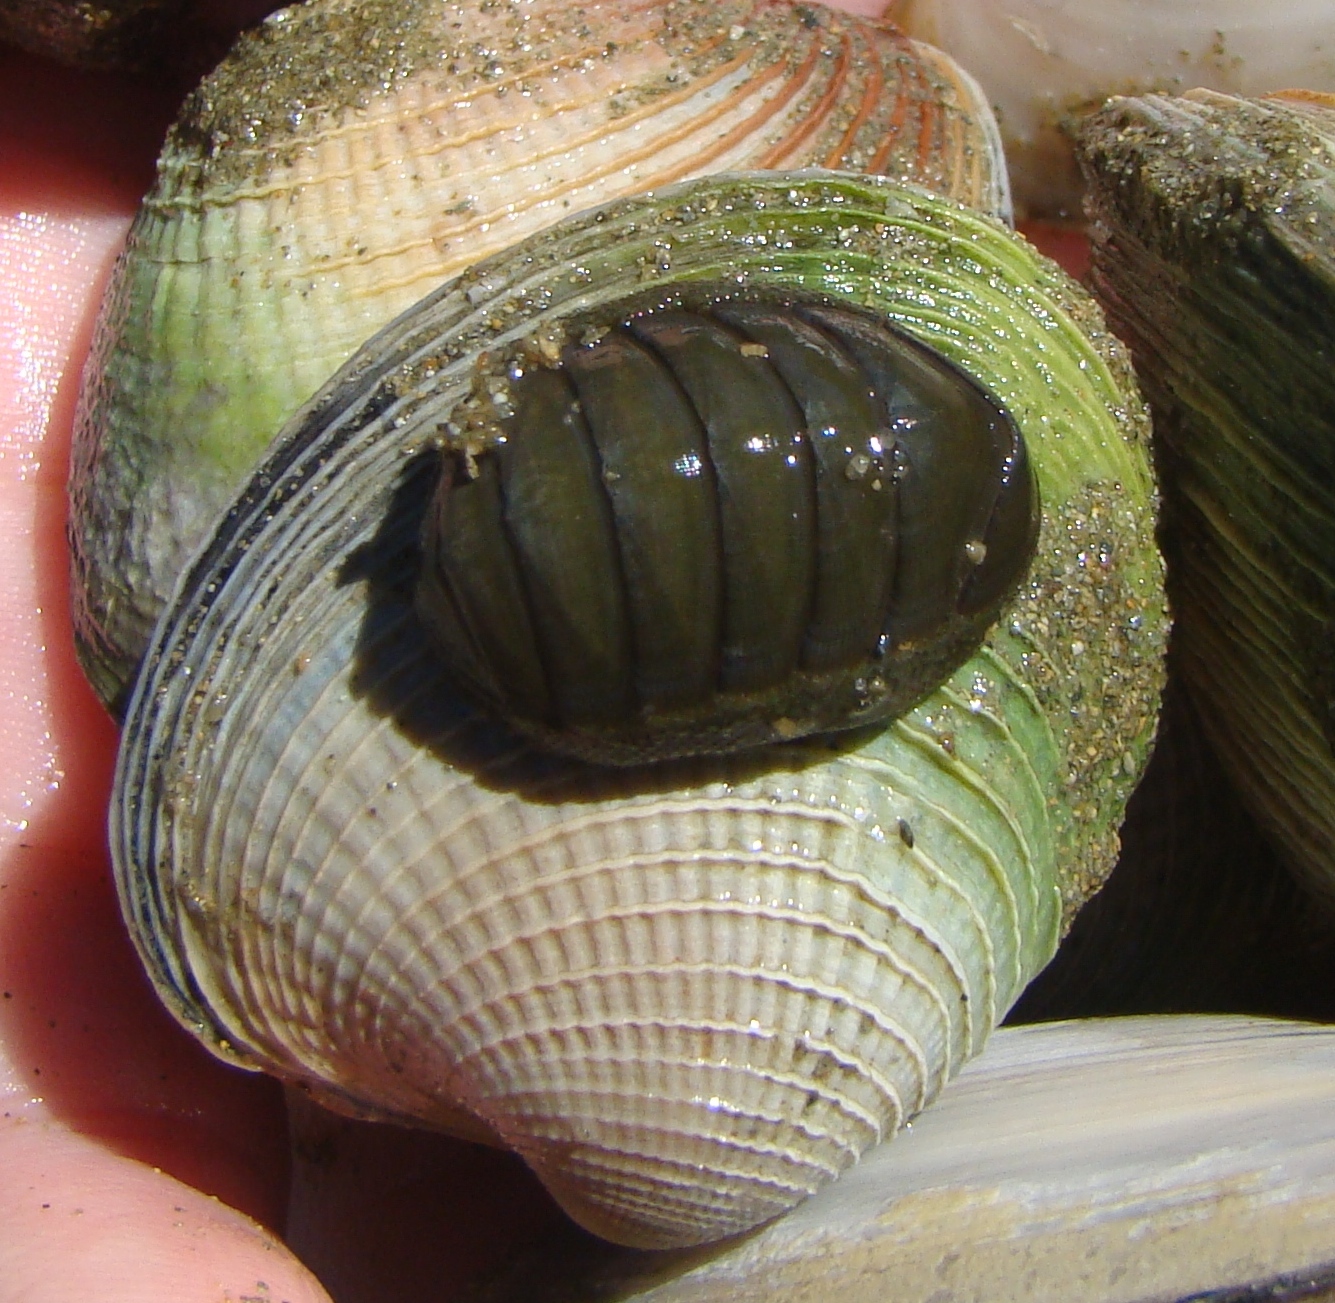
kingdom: Animalia
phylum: Mollusca
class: Polyplacophora
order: Chitonida
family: Chitonidae
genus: Chiton
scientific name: Chiton glaucus
